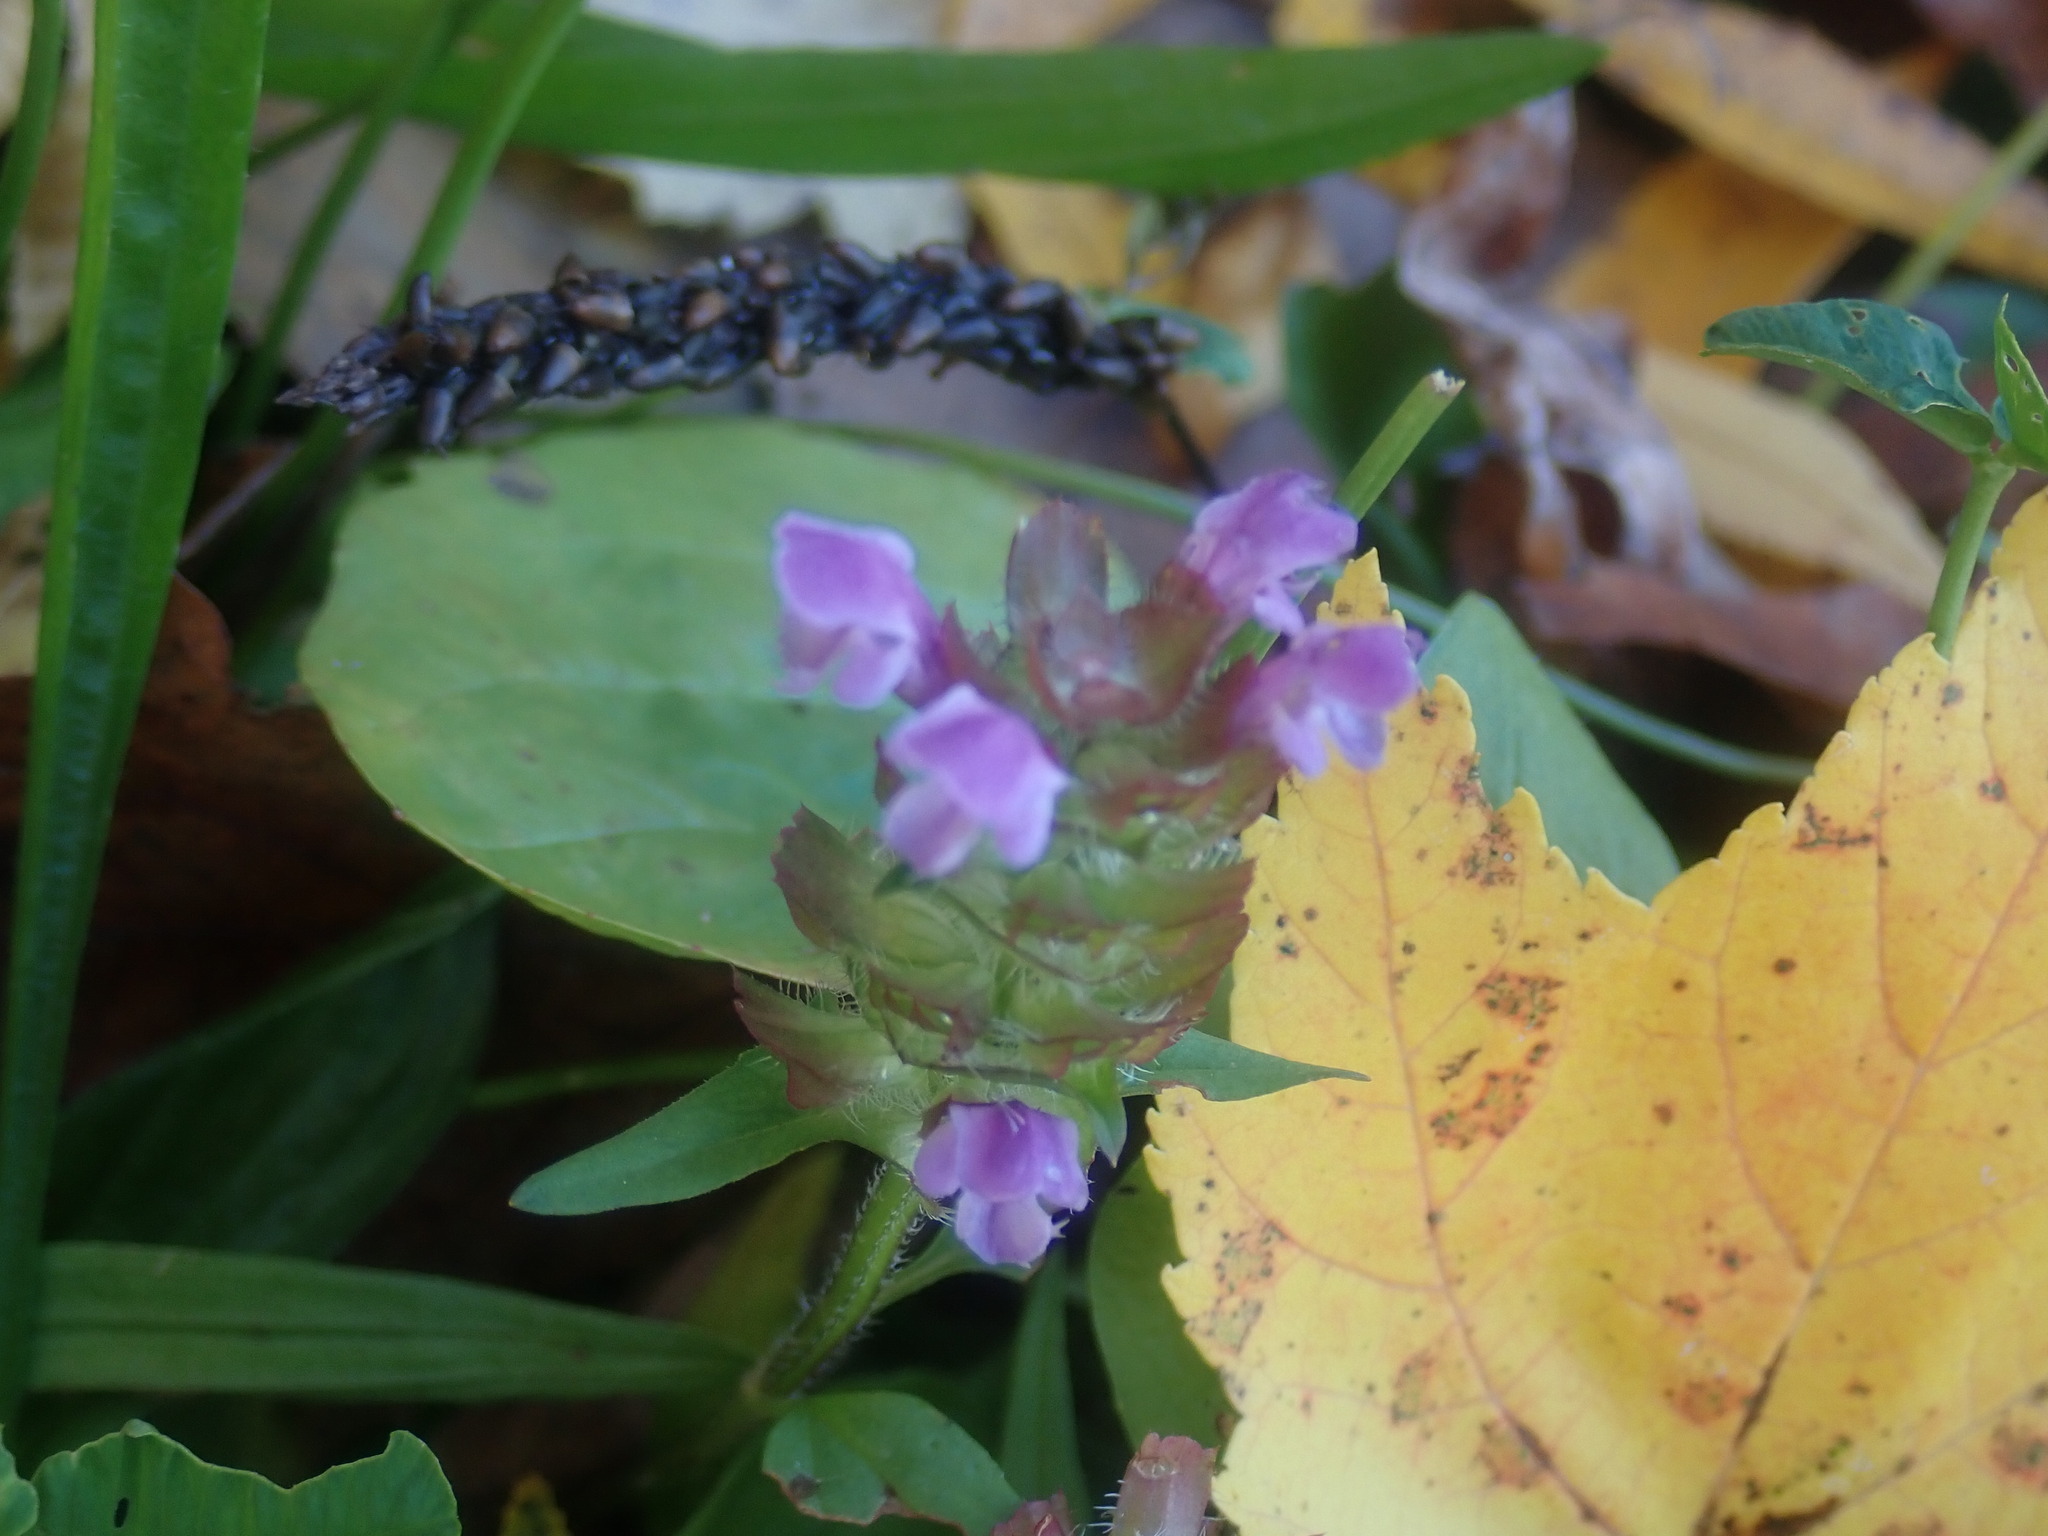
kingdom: Plantae
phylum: Tracheophyta
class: Magnoliopsida
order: Lamiales
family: Lamiaceae
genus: Prunella
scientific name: Prunella vulgaris
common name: Heal-all
